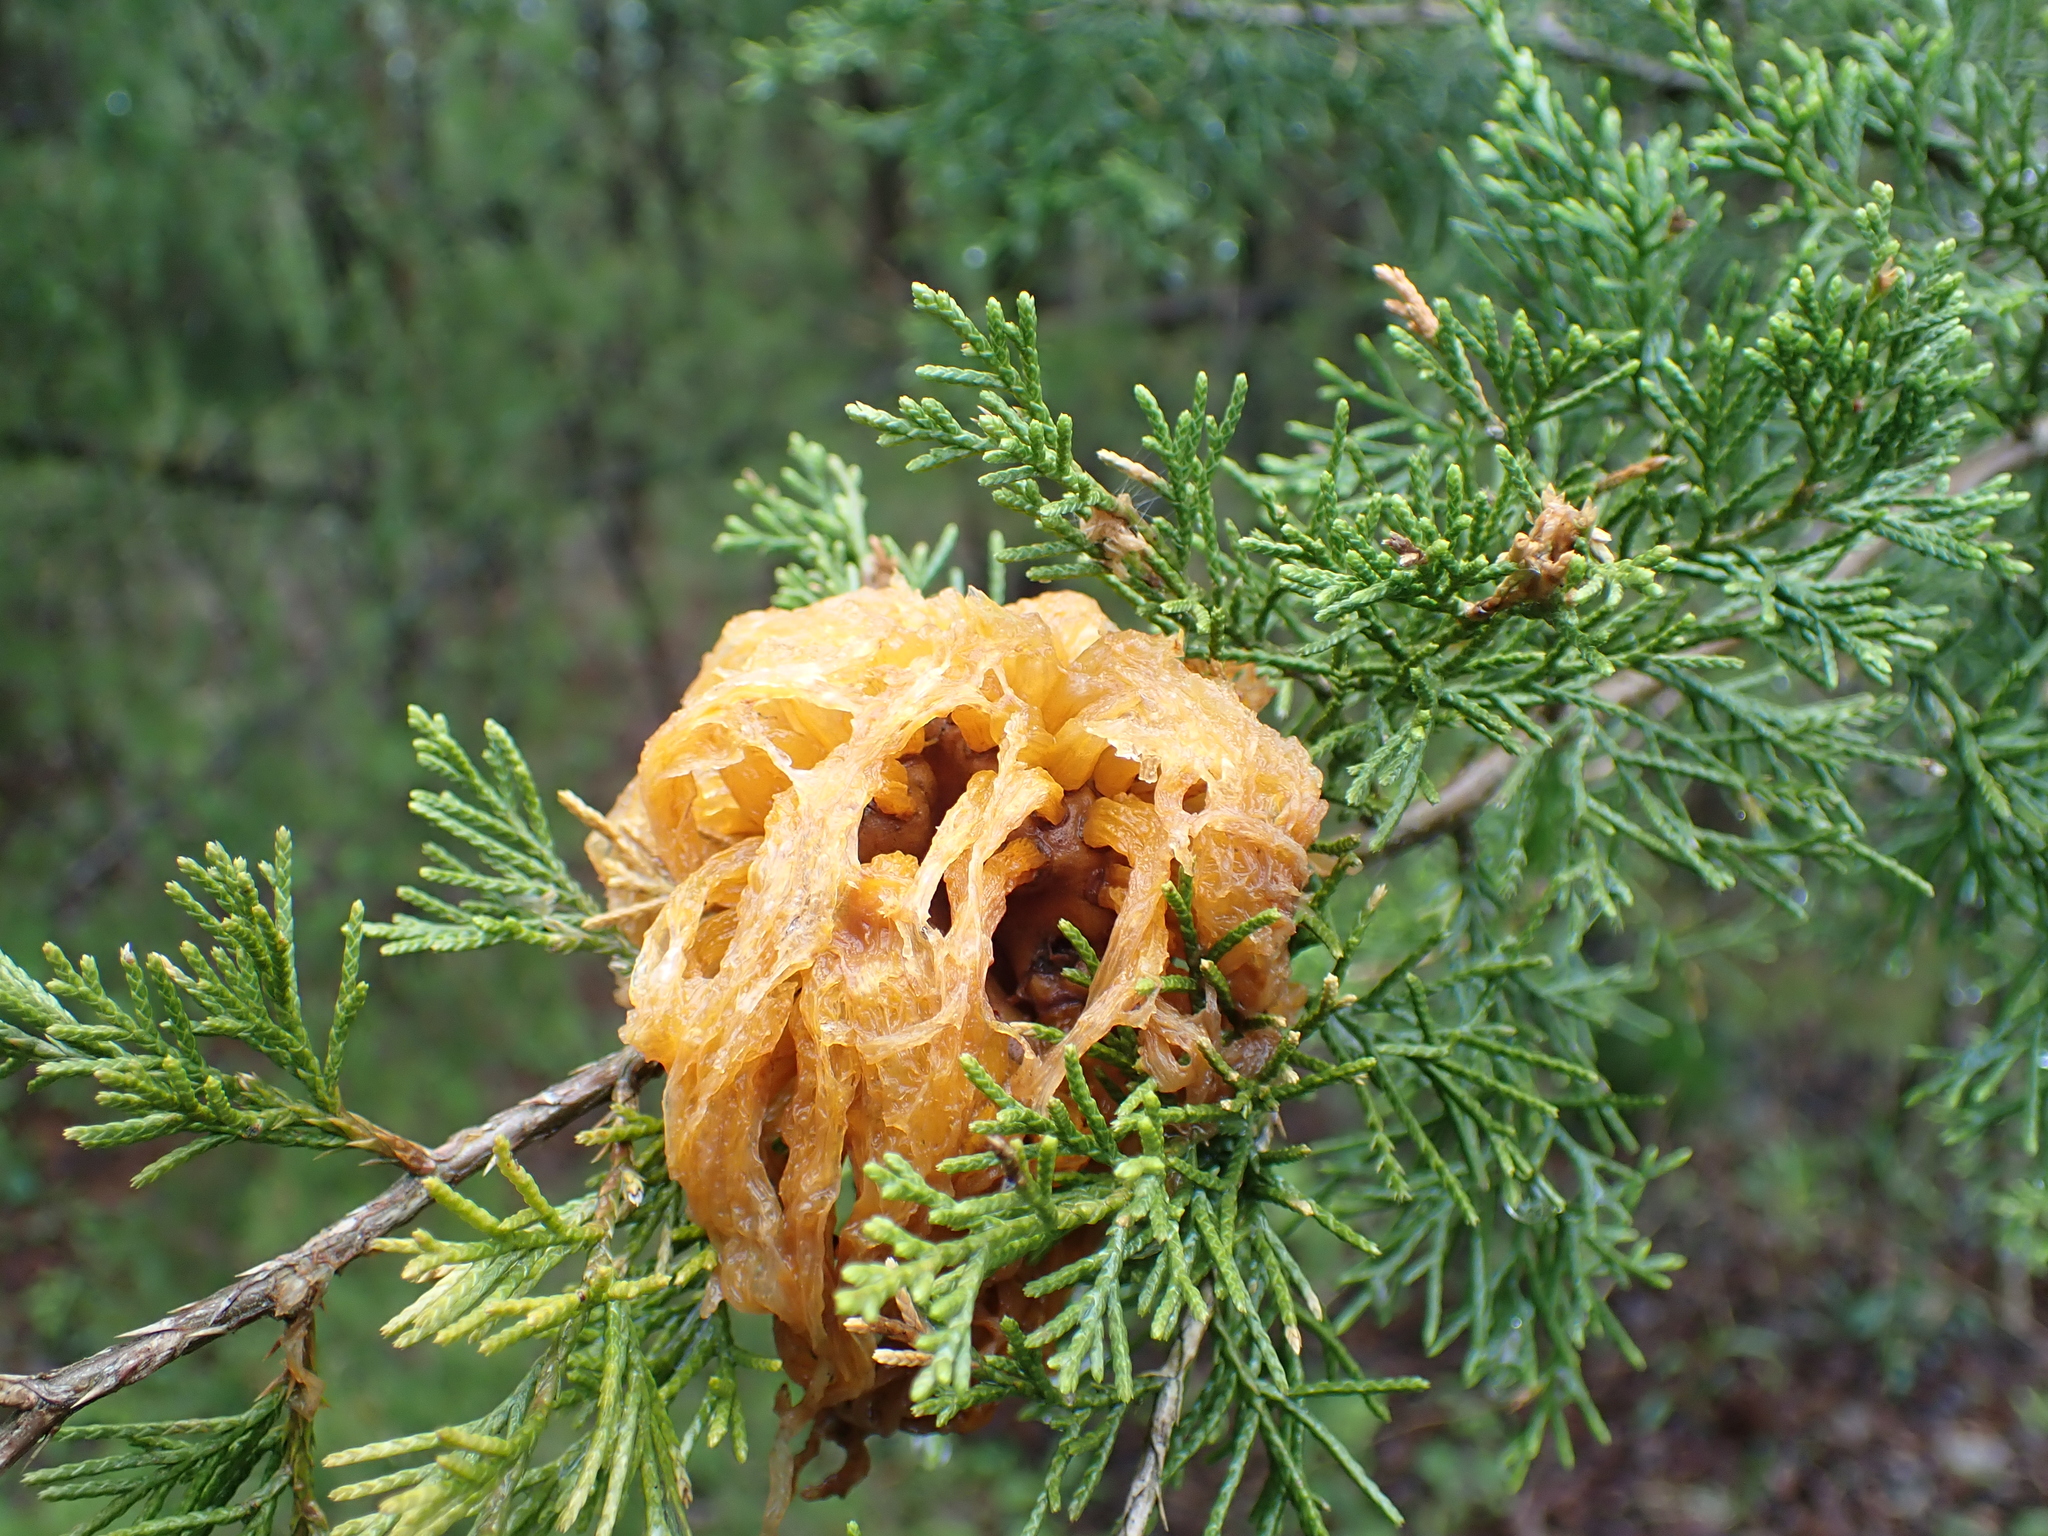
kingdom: Fungi
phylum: Basidiomycota
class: Pucciniomycetes
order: Pucciniales
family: Gymnosporangiaceae
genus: Gymnosporangium
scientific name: Gymnosporangium juniperi-virginianae
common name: Juniper-apple rust
